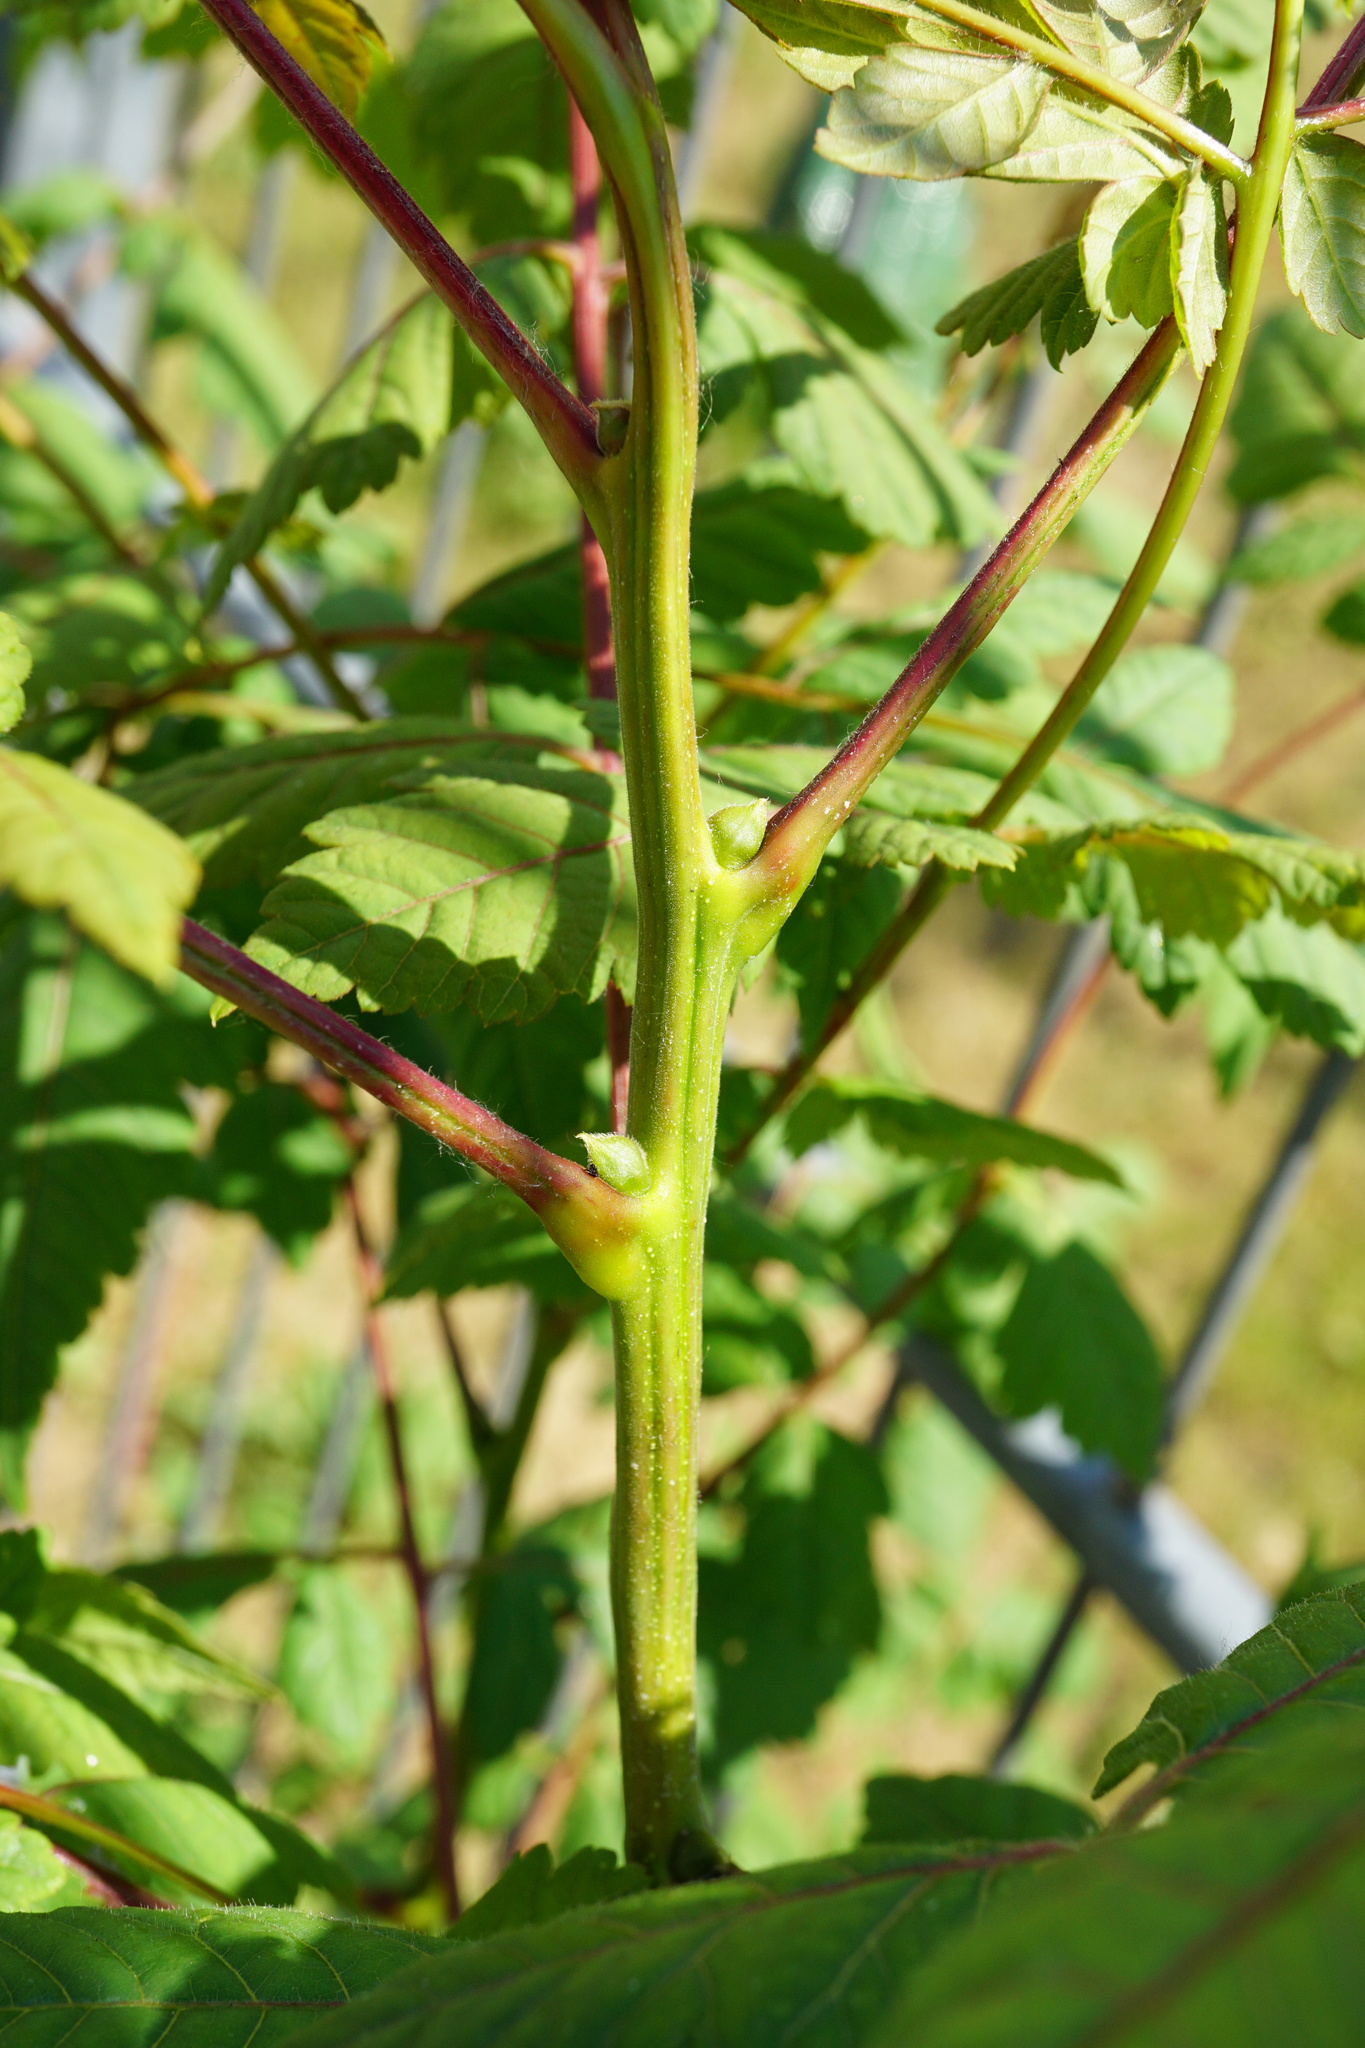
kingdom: Plantae
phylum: Tracheophyta
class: Magnoliopsida
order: Sapindales
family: Sapindaceae
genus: Koelreuteria
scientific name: Koelreuteria paniculata
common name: Pride-of-india
